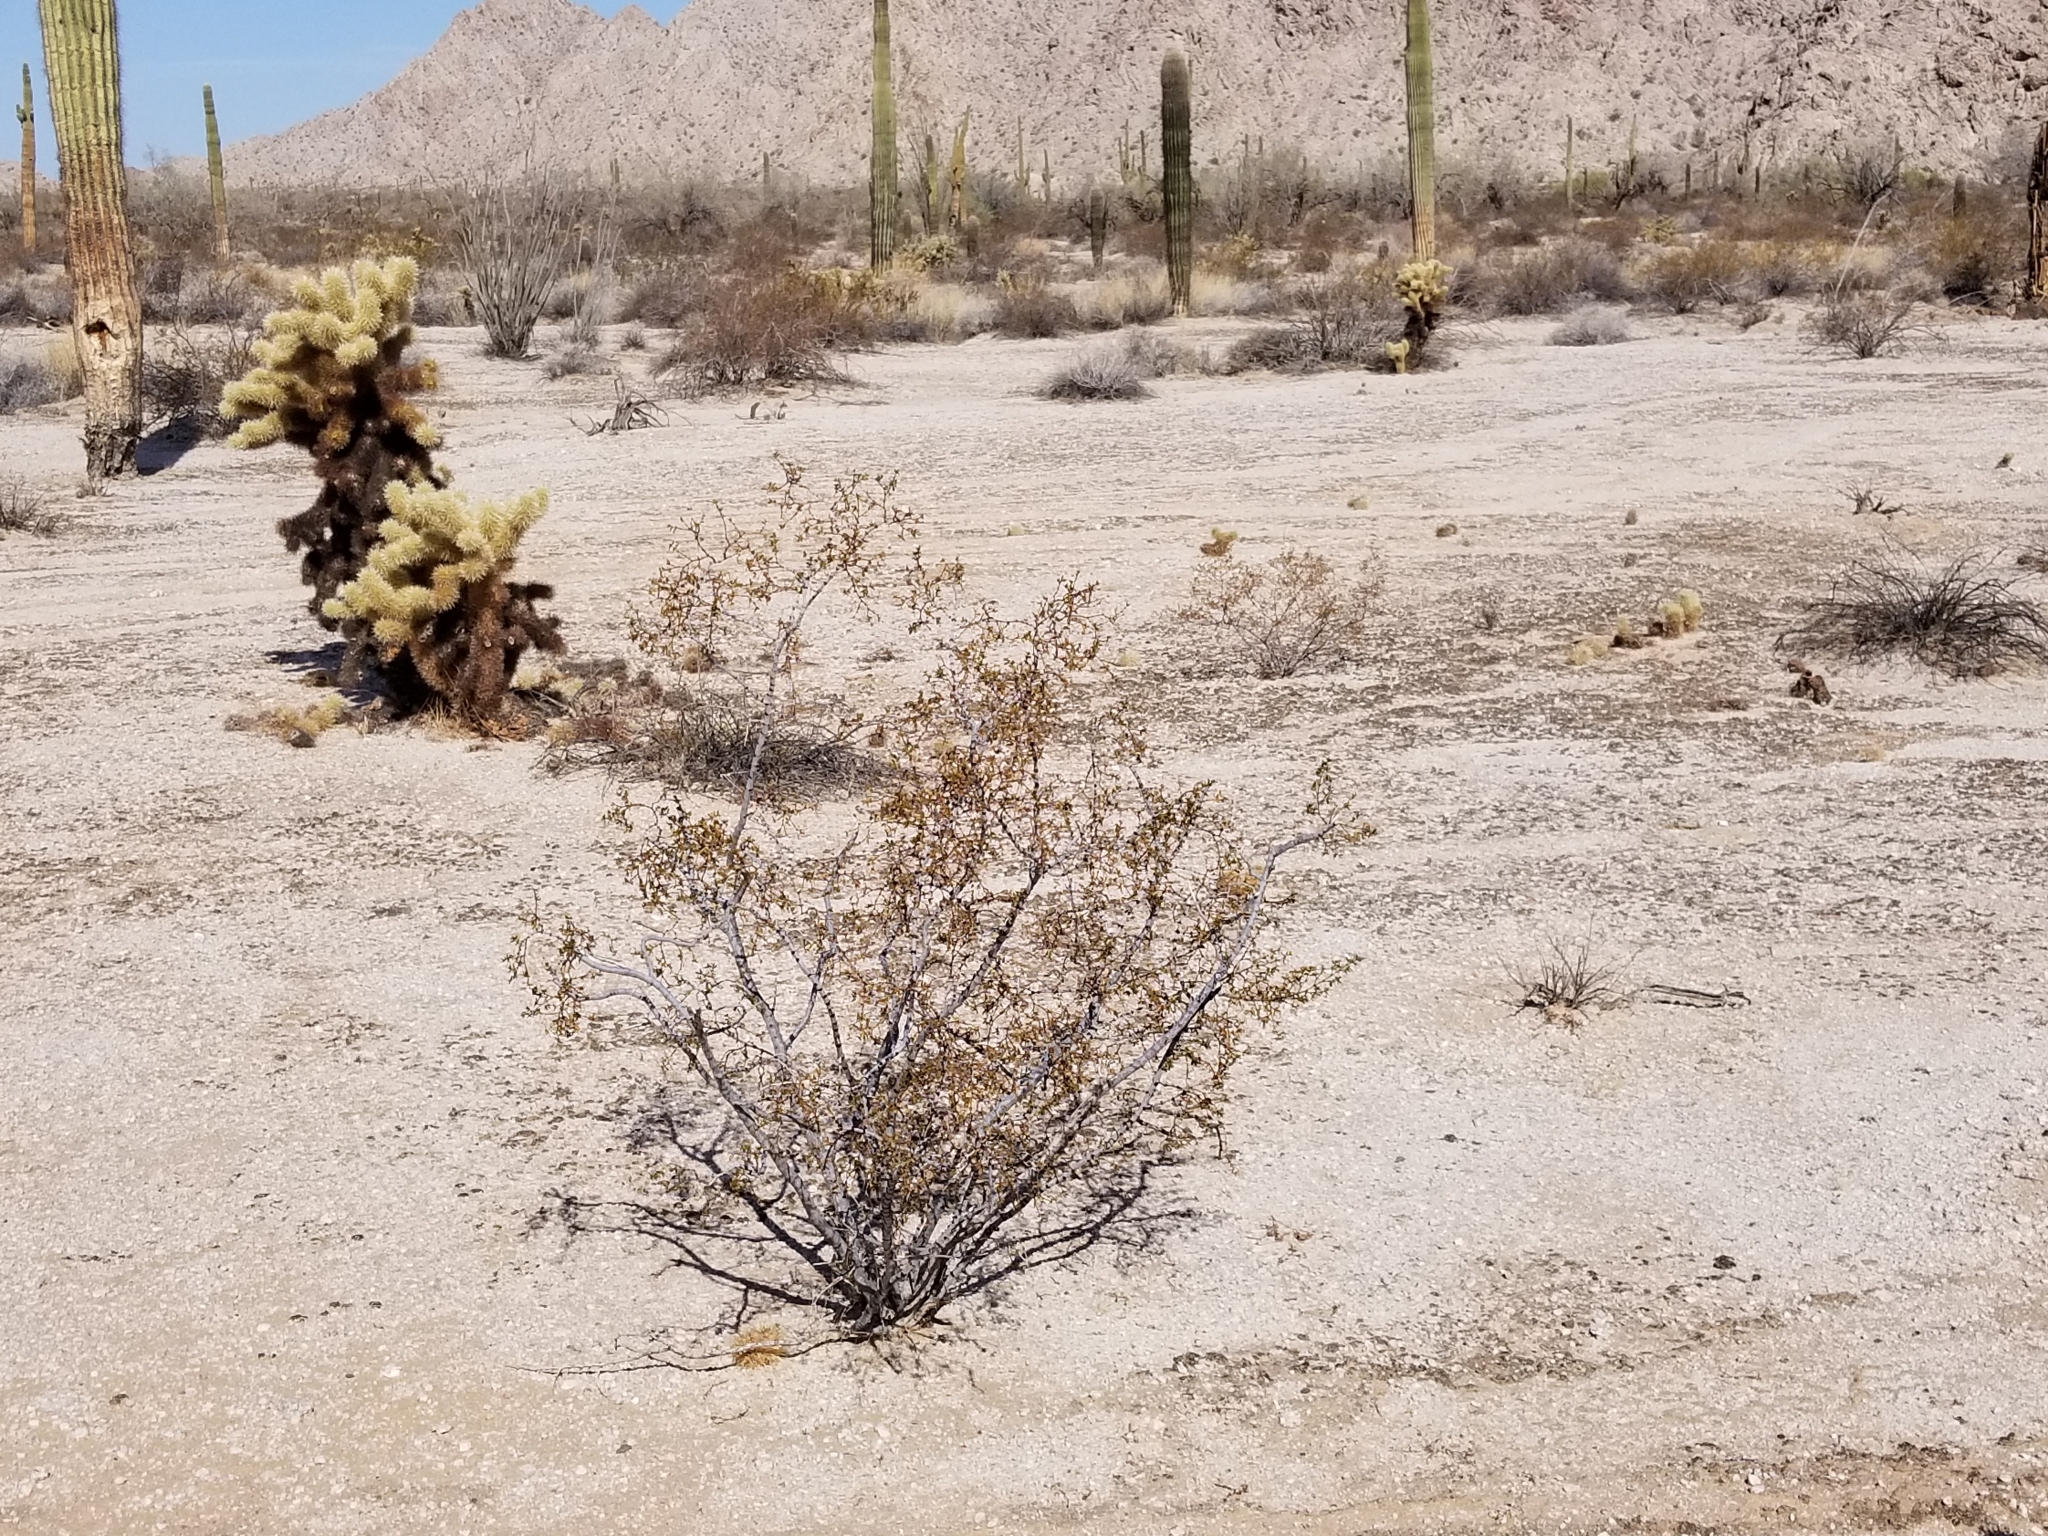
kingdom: Plantae
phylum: Tracheophyta
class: Magnoliopsida
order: Zygophyllales
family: Zygophyllaceae
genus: Larrea
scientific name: Larrea tridentata
